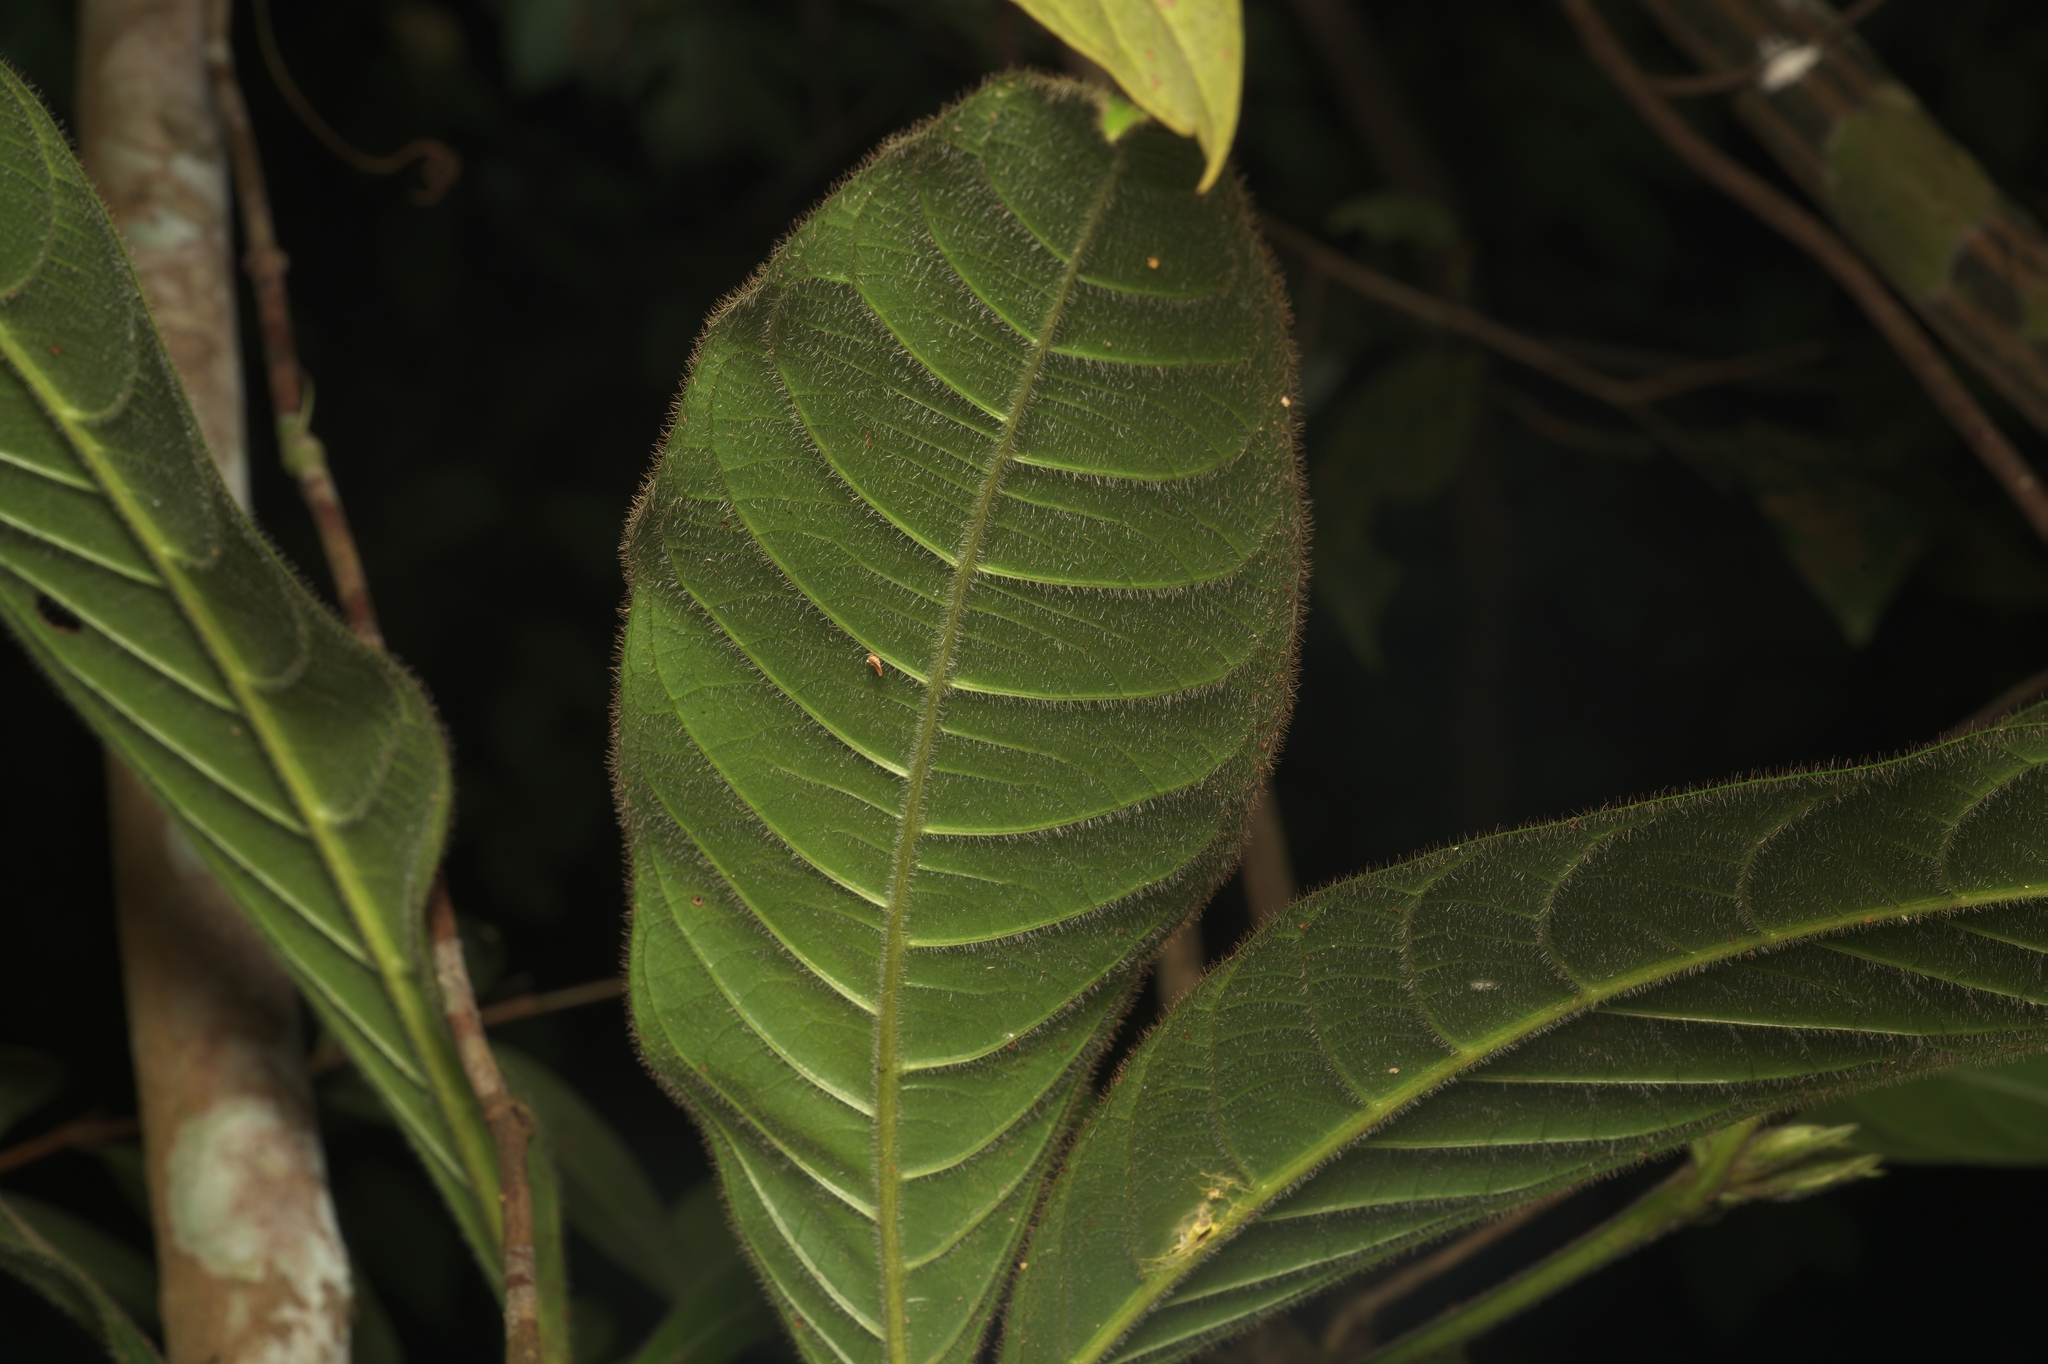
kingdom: Plantae
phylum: Tracheophyta
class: Magnoliopsida
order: Gentianales
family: Rubiaceae
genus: Singaporandia
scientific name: Singaporandia macrophylla
